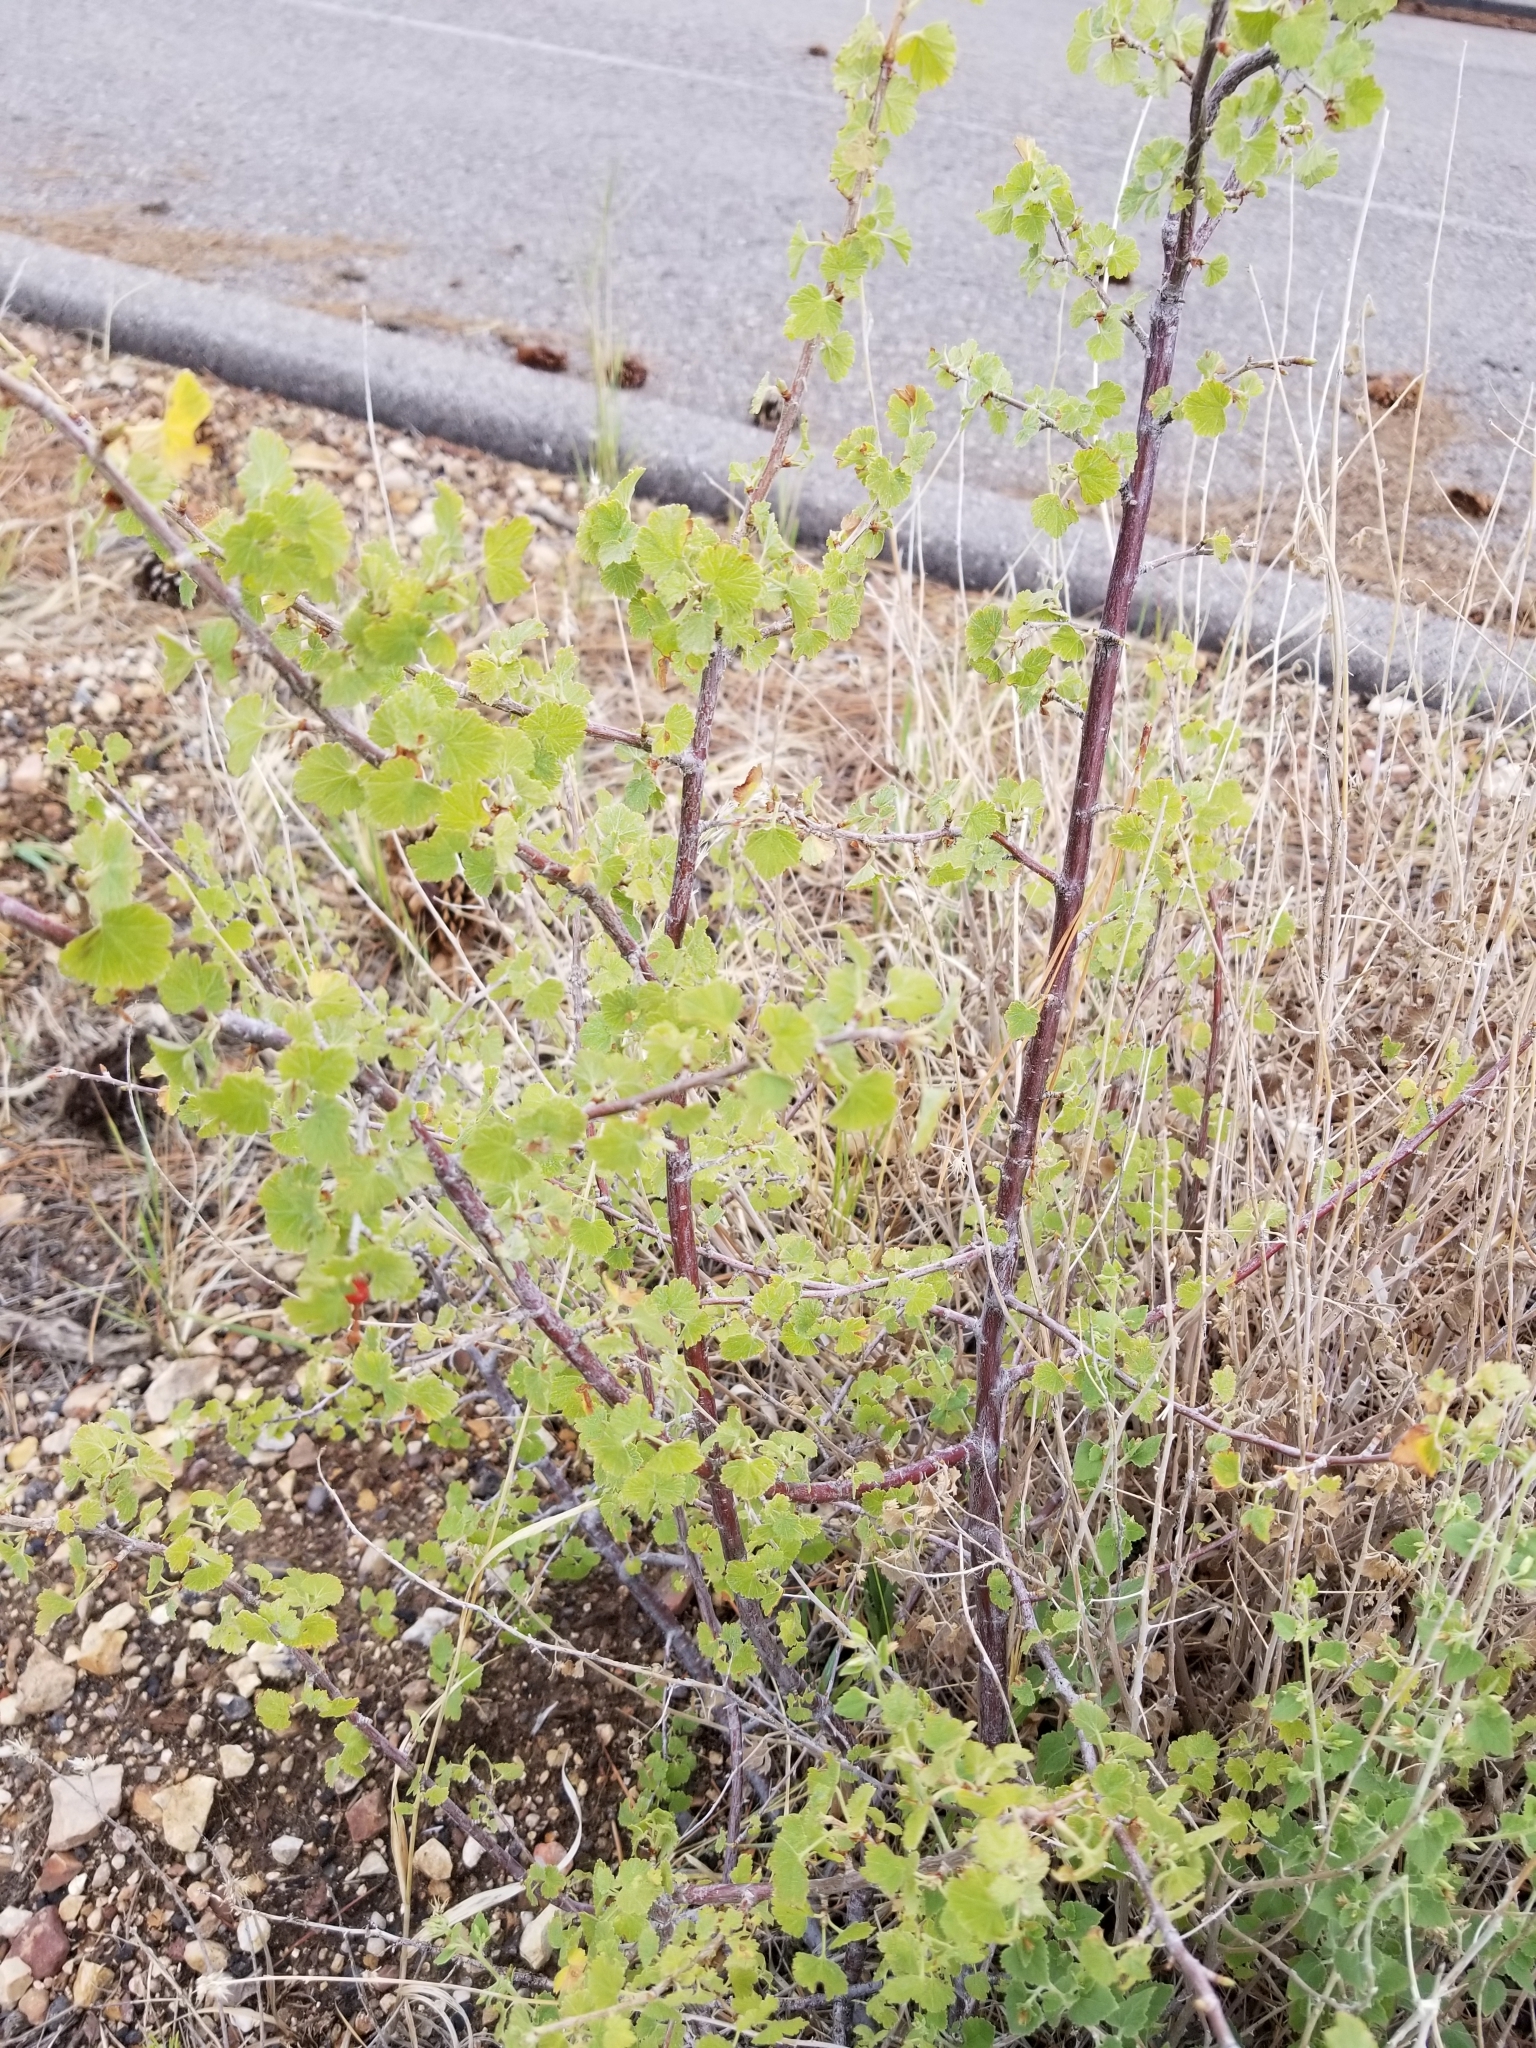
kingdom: Plantae
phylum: Tracheophyta
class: Magnoliopsida
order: Saxifragales
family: Grossulariaceae
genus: Ribes
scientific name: Ribes cereum
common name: Wax currant
